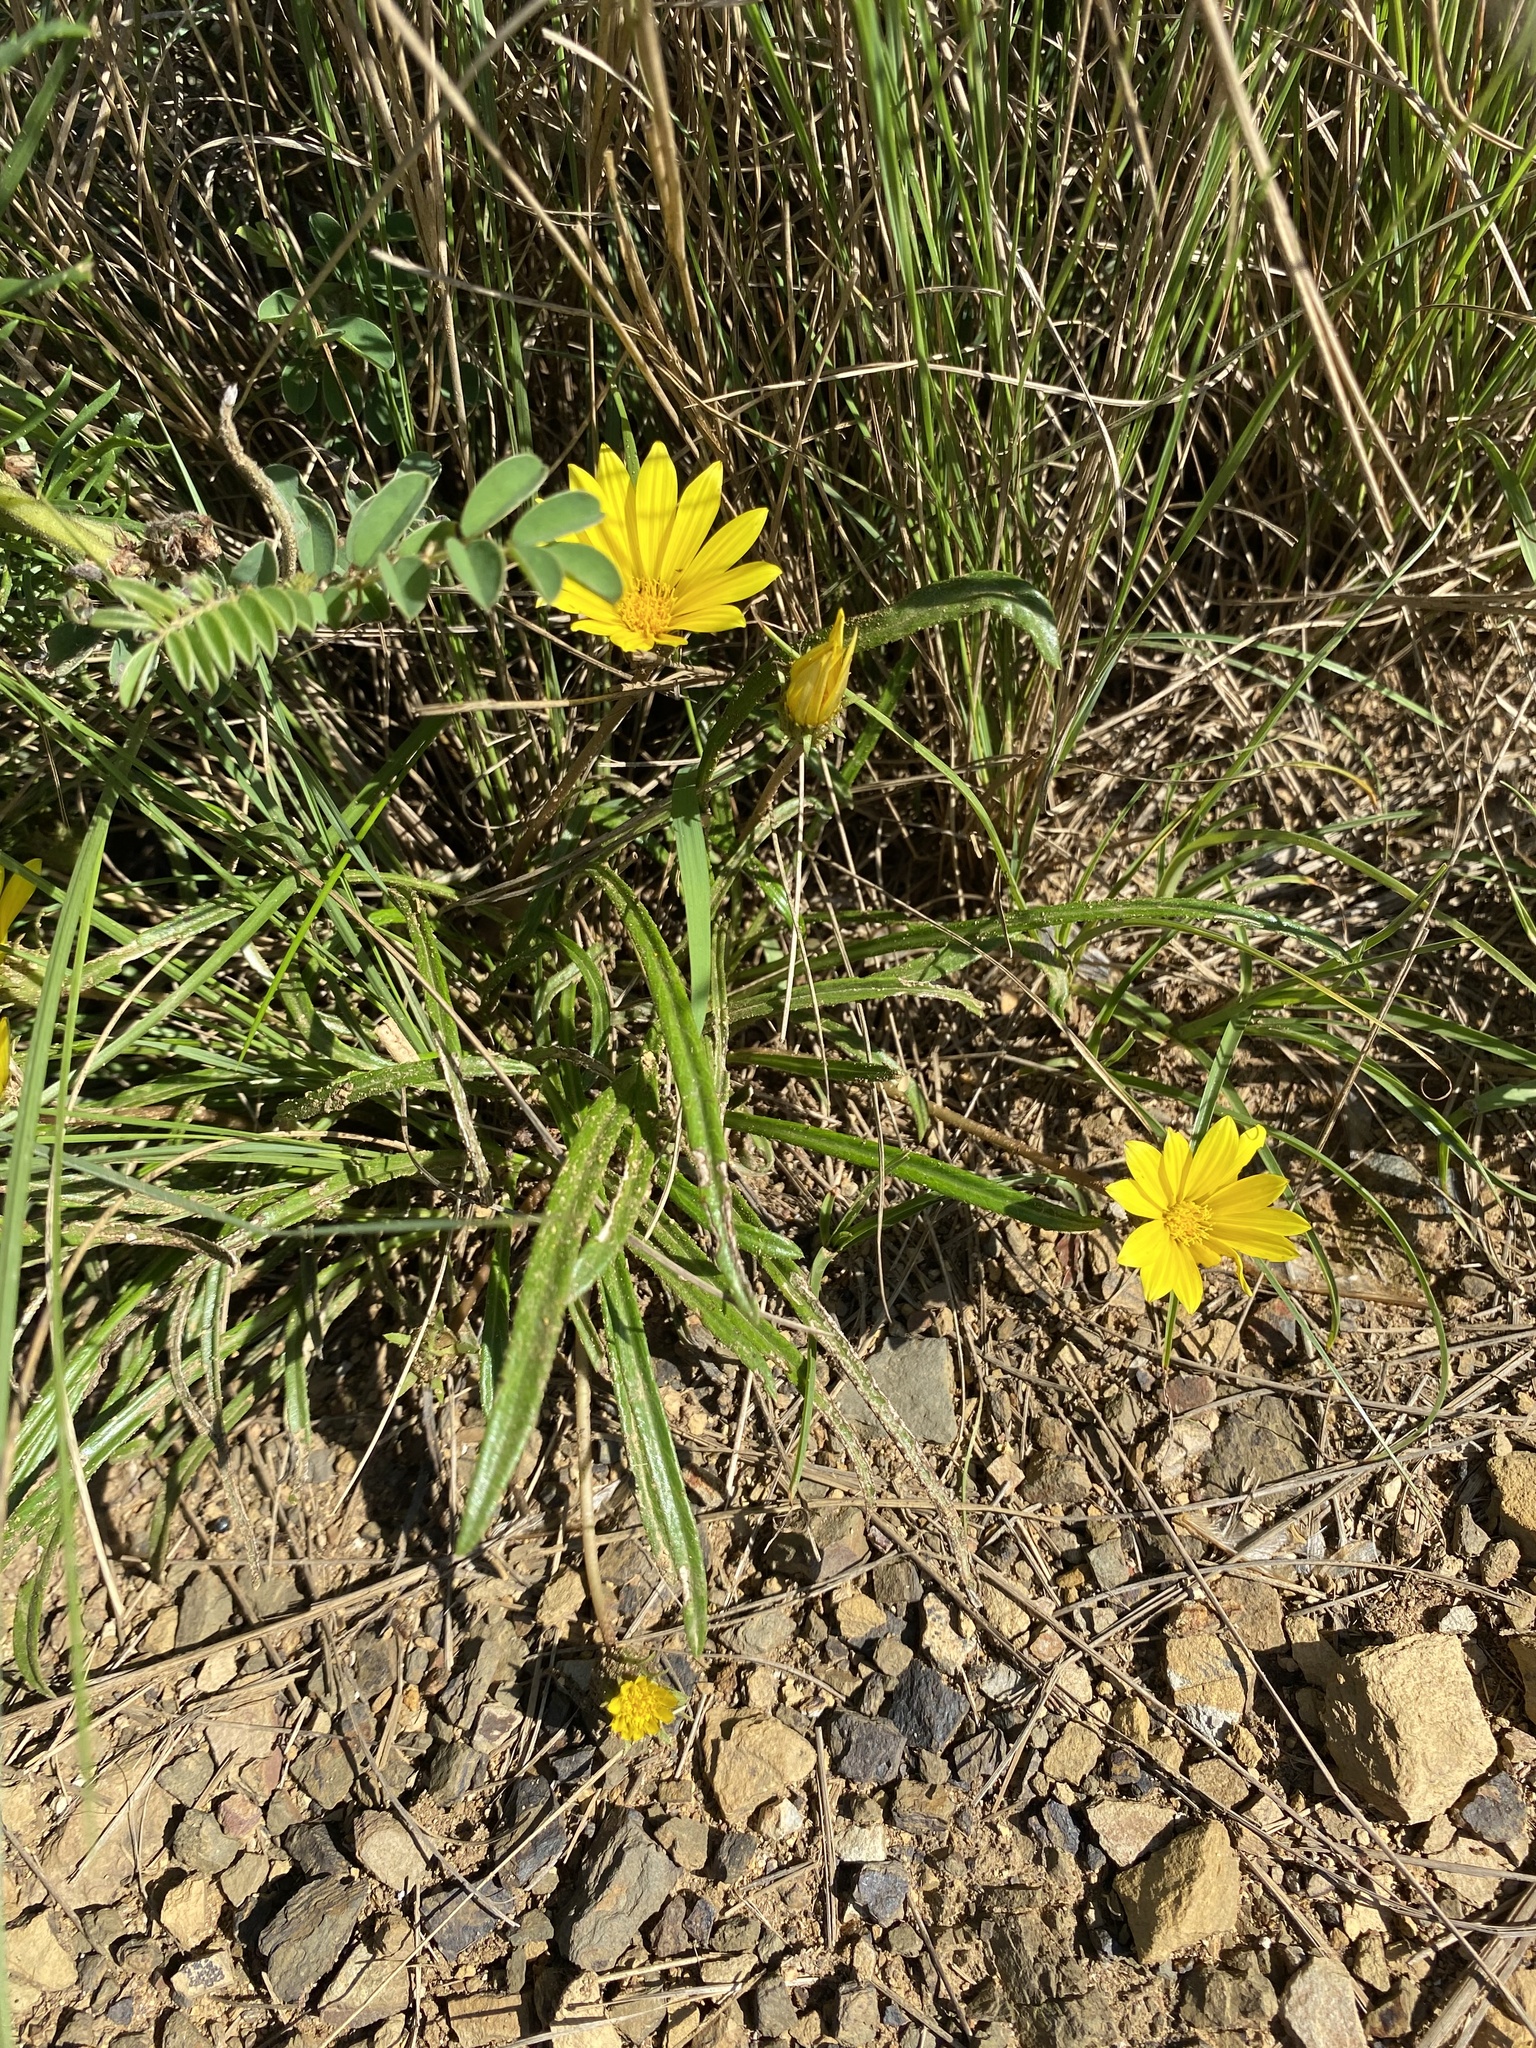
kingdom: Plantae
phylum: Tracheophyta
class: Magnoliopsida
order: Asterales
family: Asteraceae
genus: Gazania
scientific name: Gazania linearis
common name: Treasureflower
